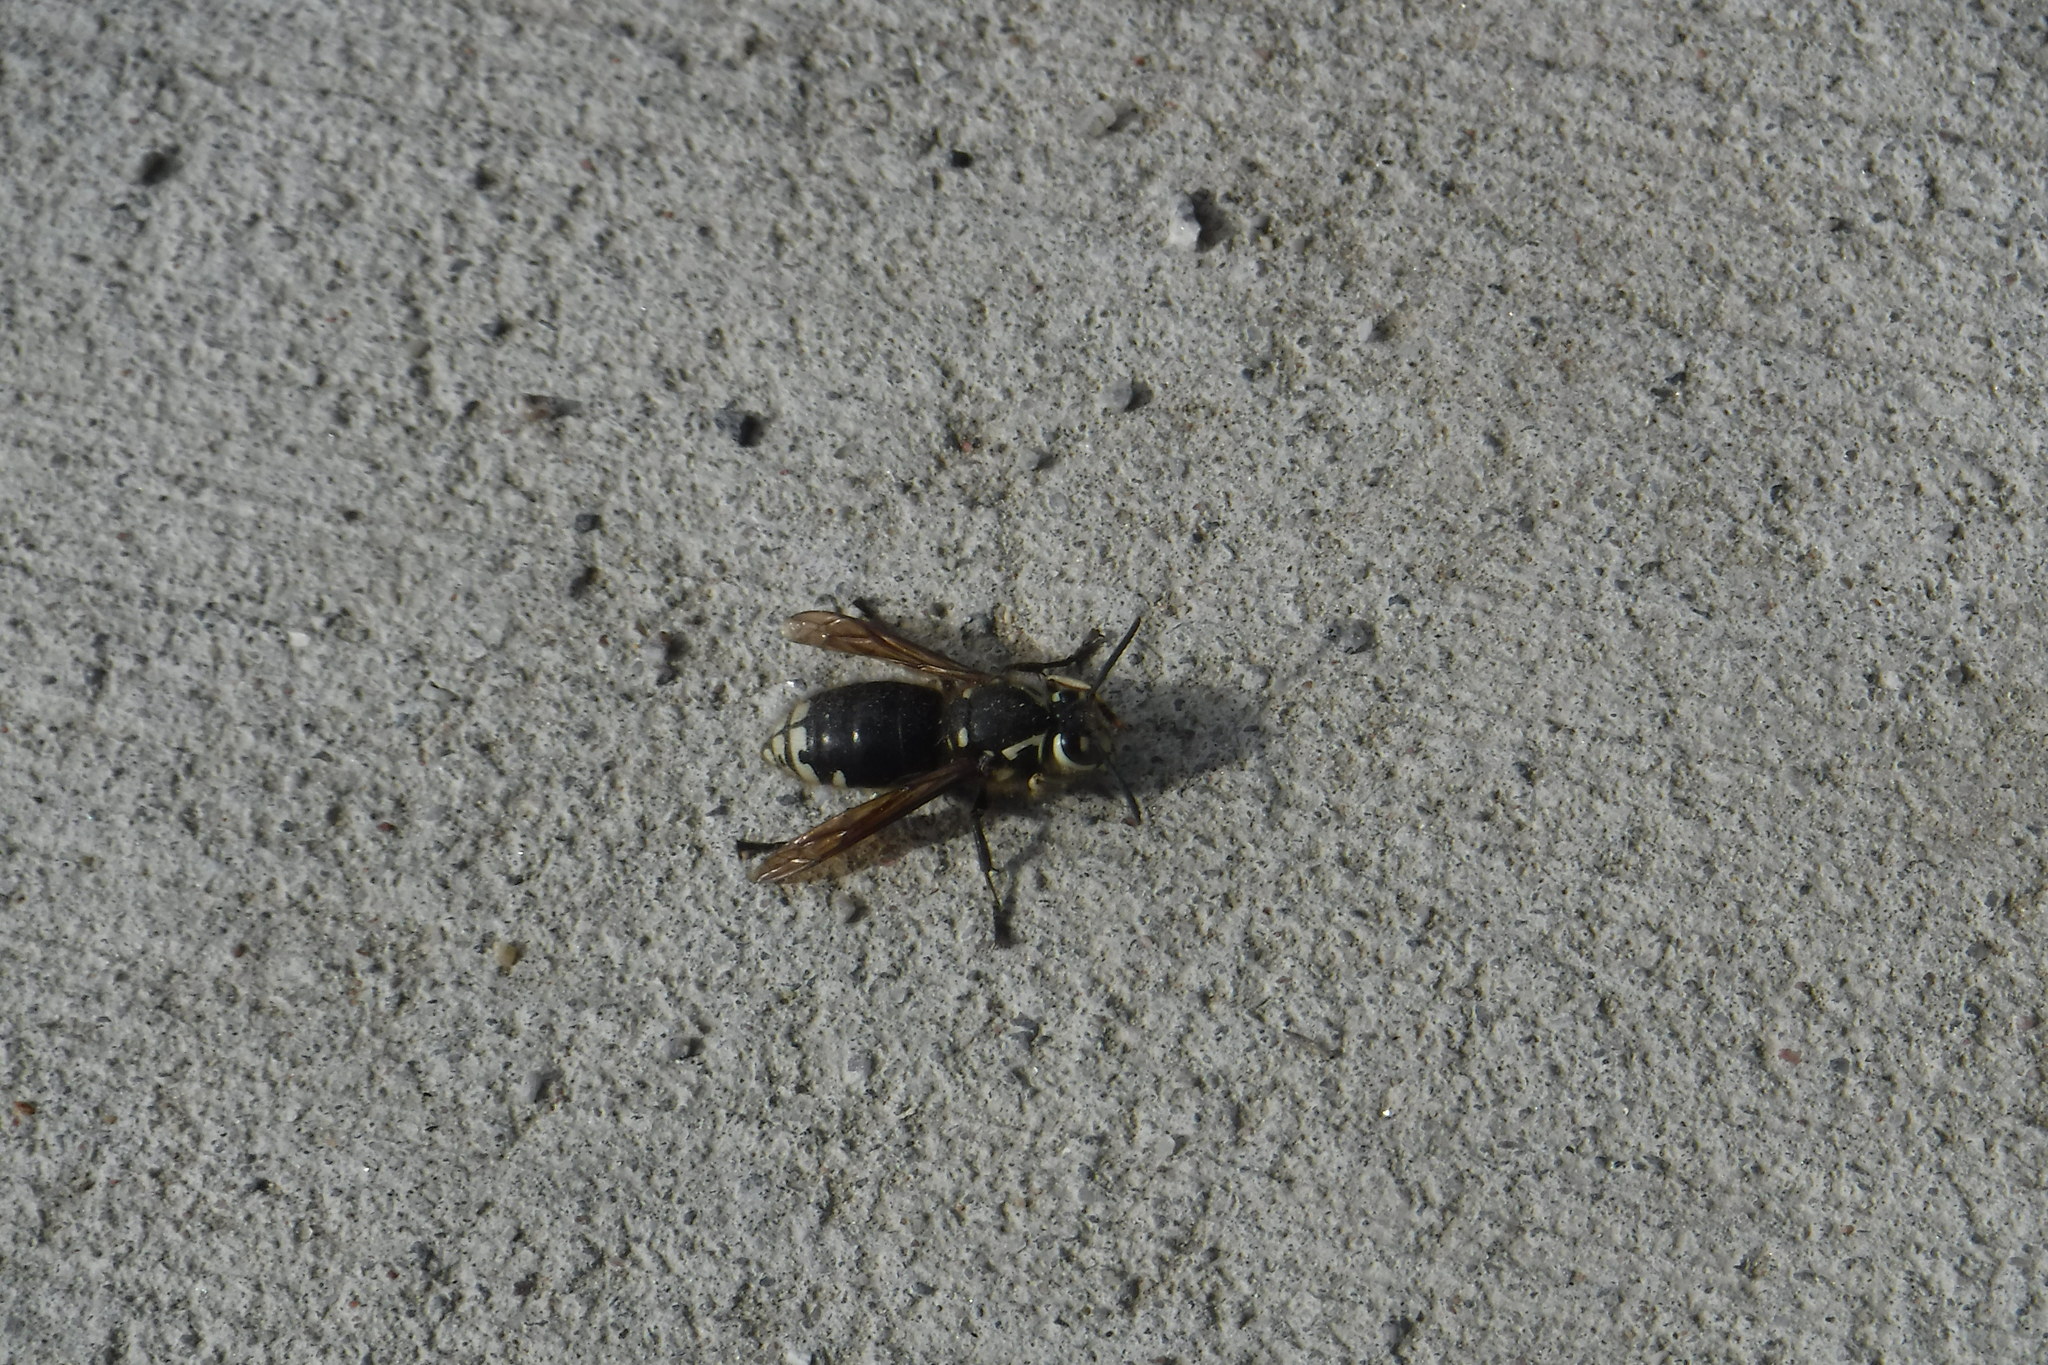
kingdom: Animalia
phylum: Arthropoda
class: Insecta
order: Hymenoptera
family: Vespidae
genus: Dolichovespula
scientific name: Dolichovespula maculata
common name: Bald-faced hornet
